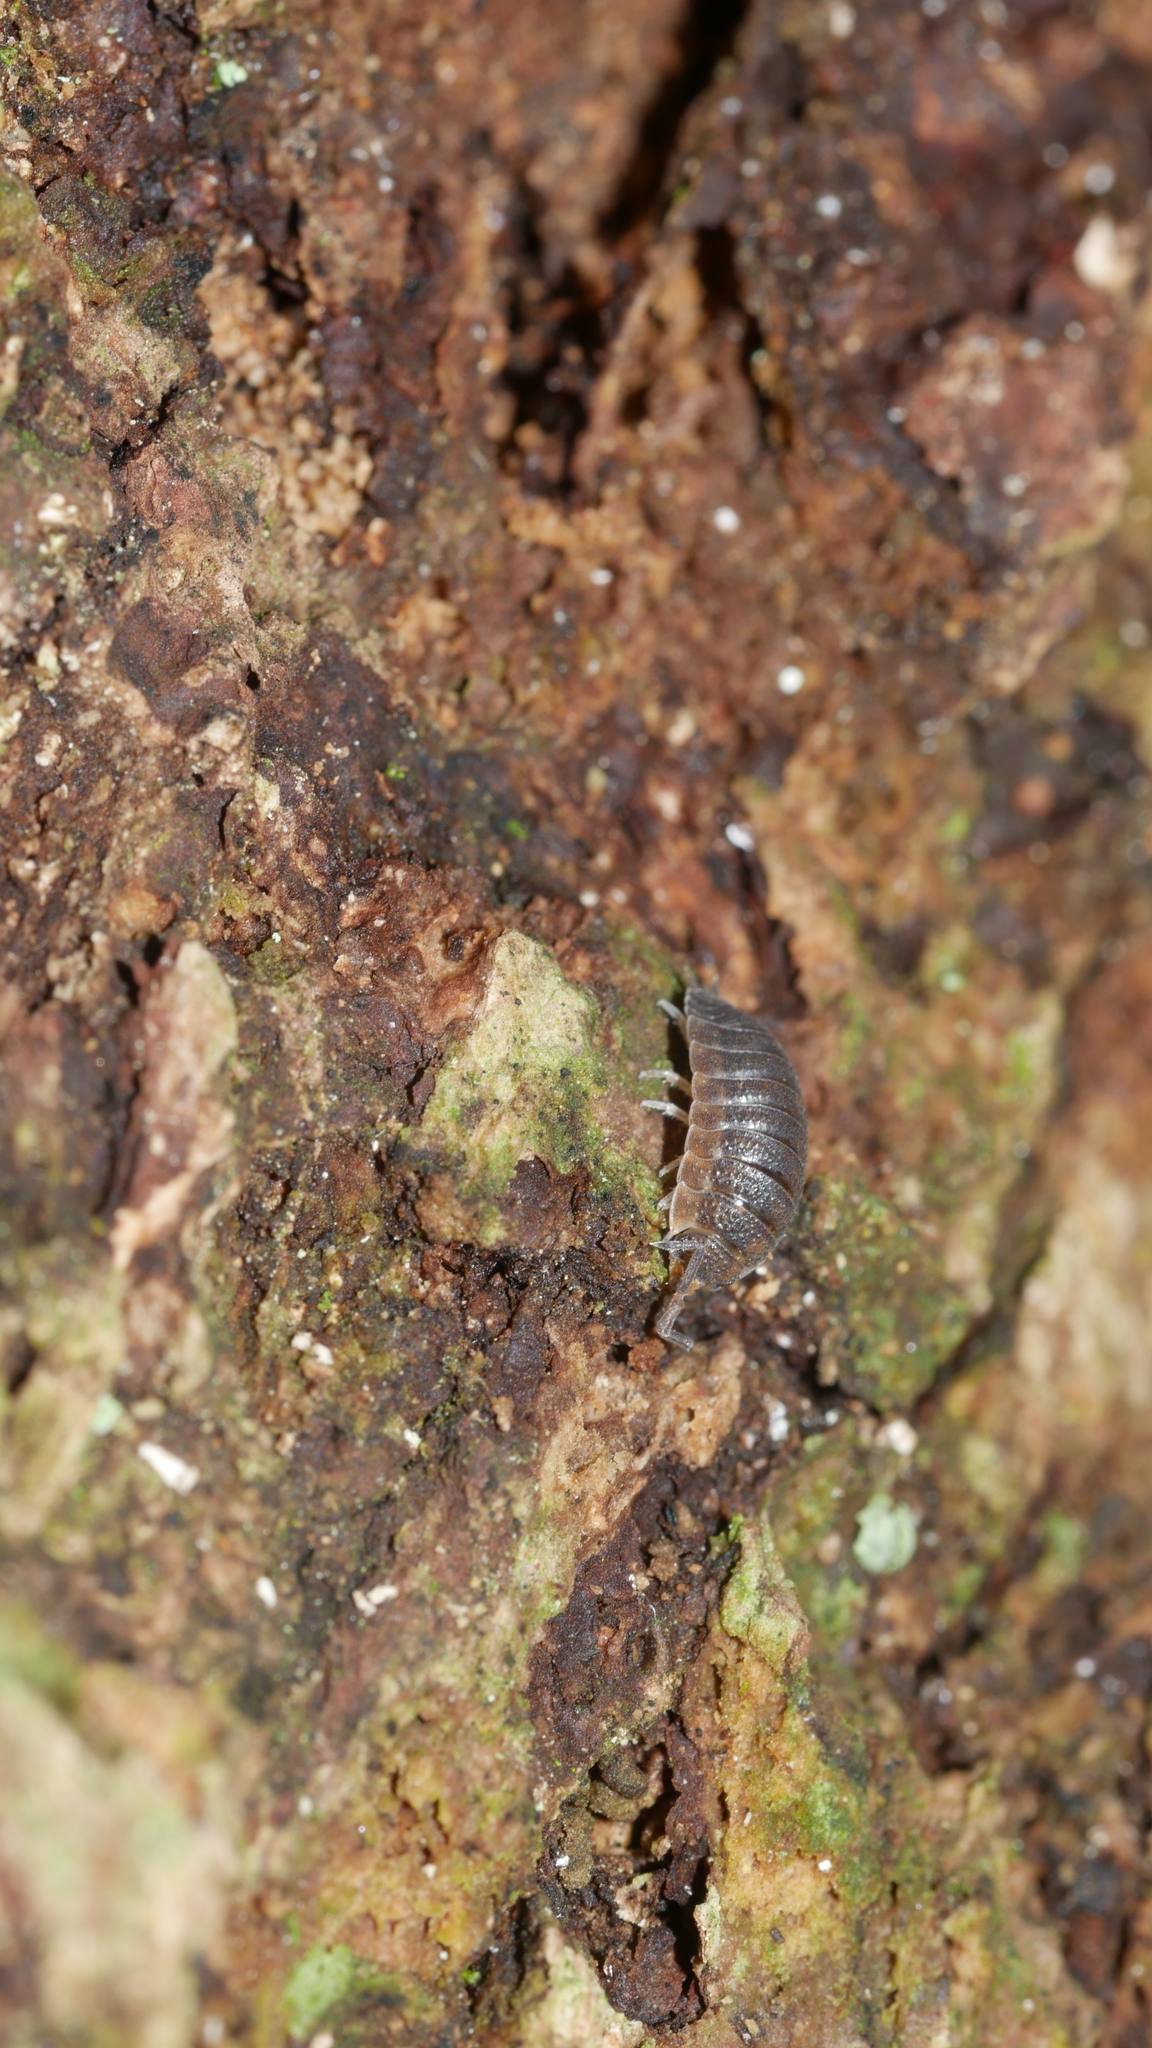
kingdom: Animalia
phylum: Arthropoda
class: Malacostraca
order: Isopoda
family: Porcellionidae
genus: Porcellio
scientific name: Porcellio scaber
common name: Common rough woodlouse
